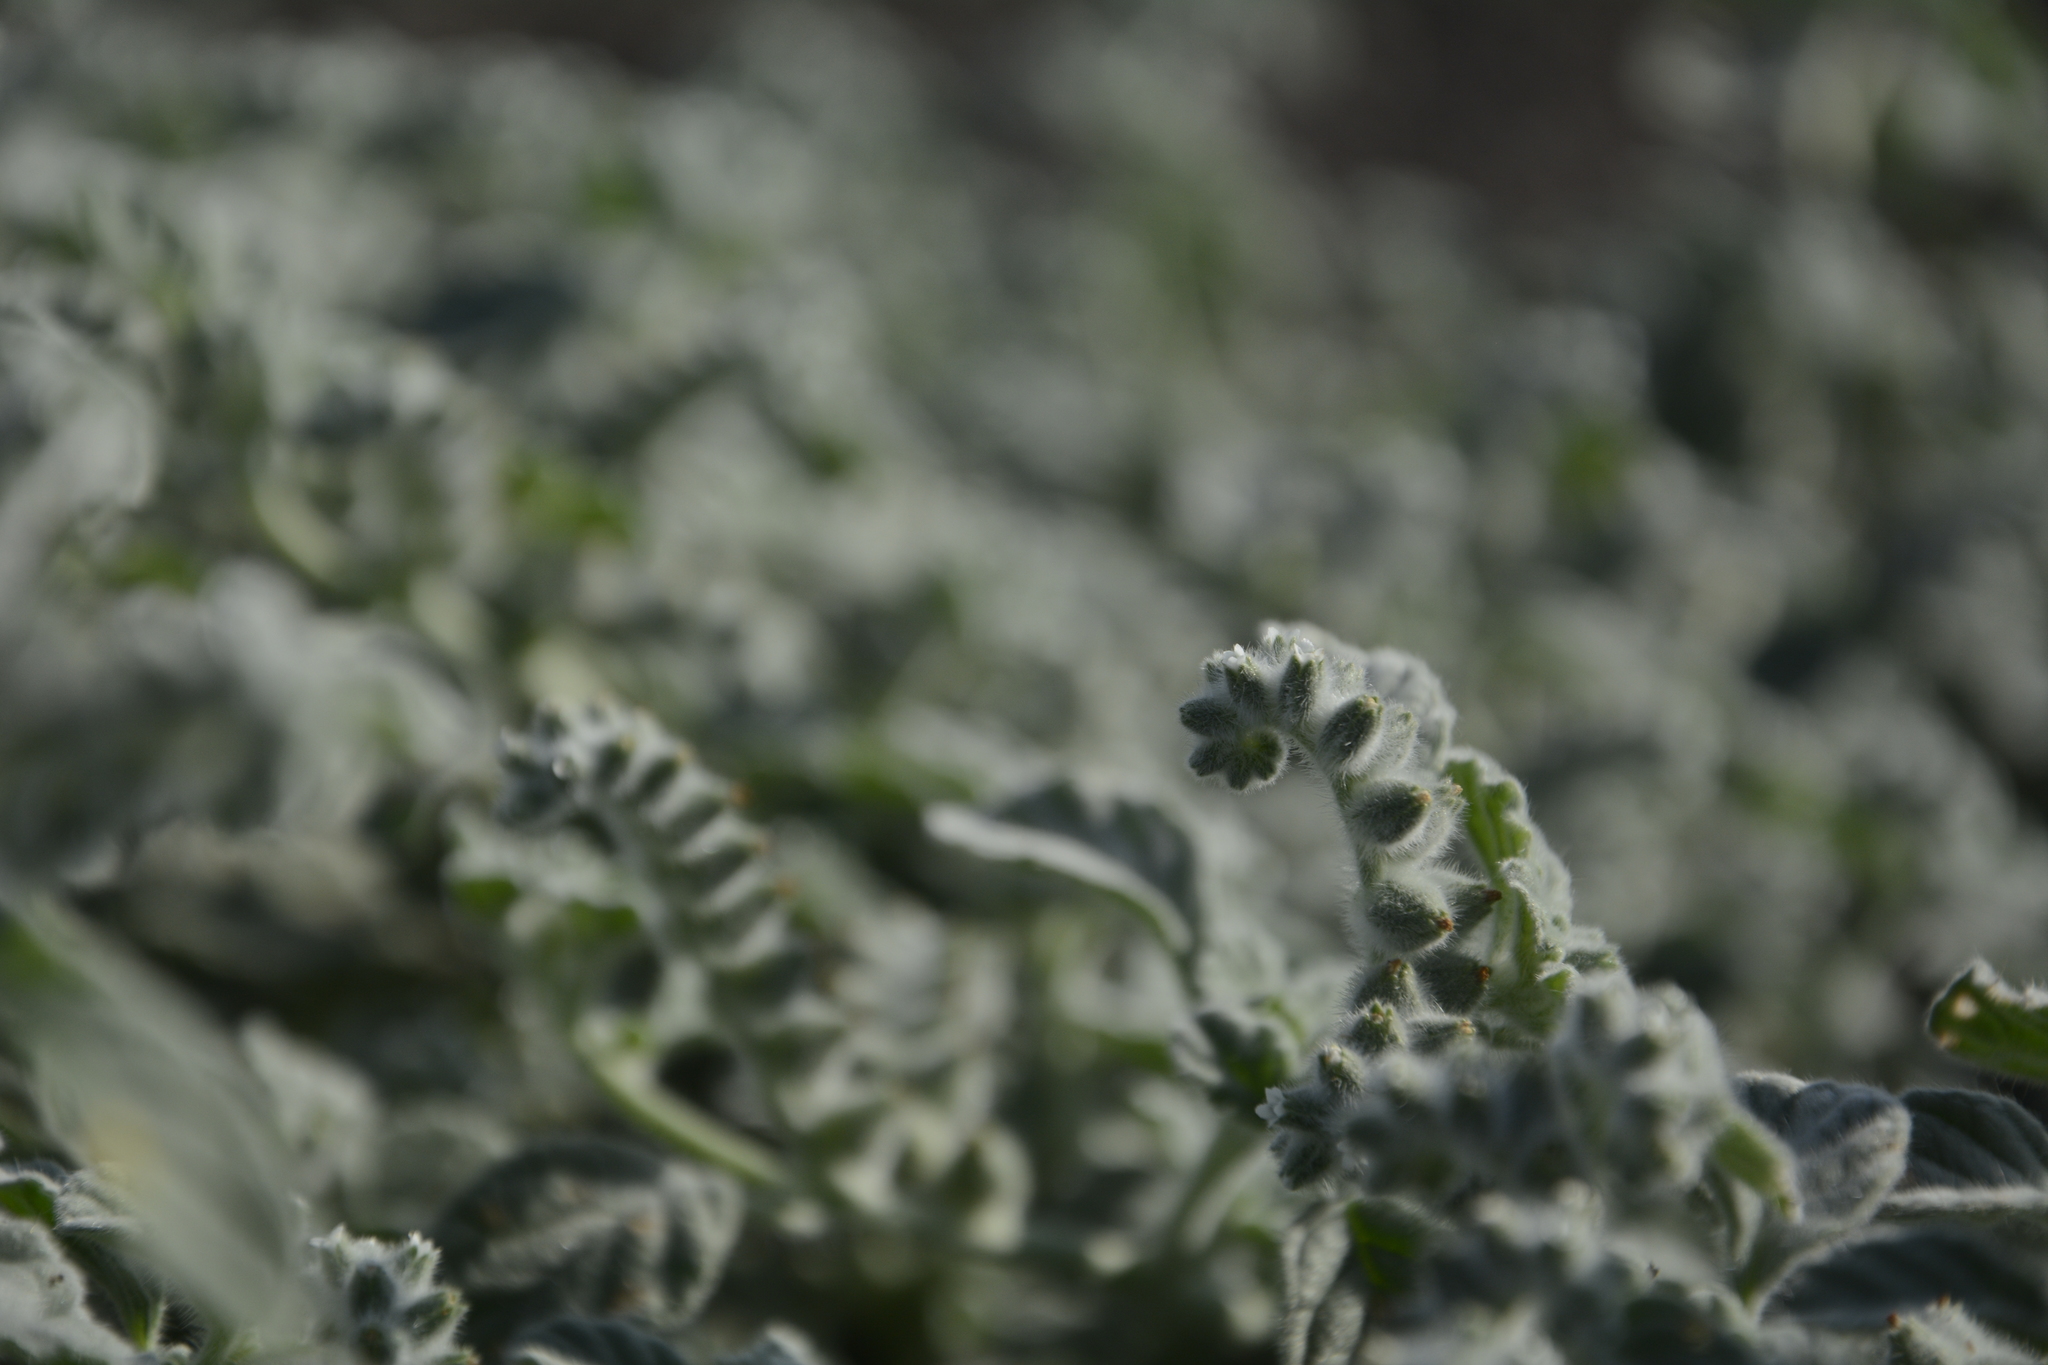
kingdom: Plantae
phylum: Tracheophyta
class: Magnoliopsida
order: Boraginales
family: Heliotropiaceae
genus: Heliotropium
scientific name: Heliotropium supinum
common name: Dwarf heliotrope
